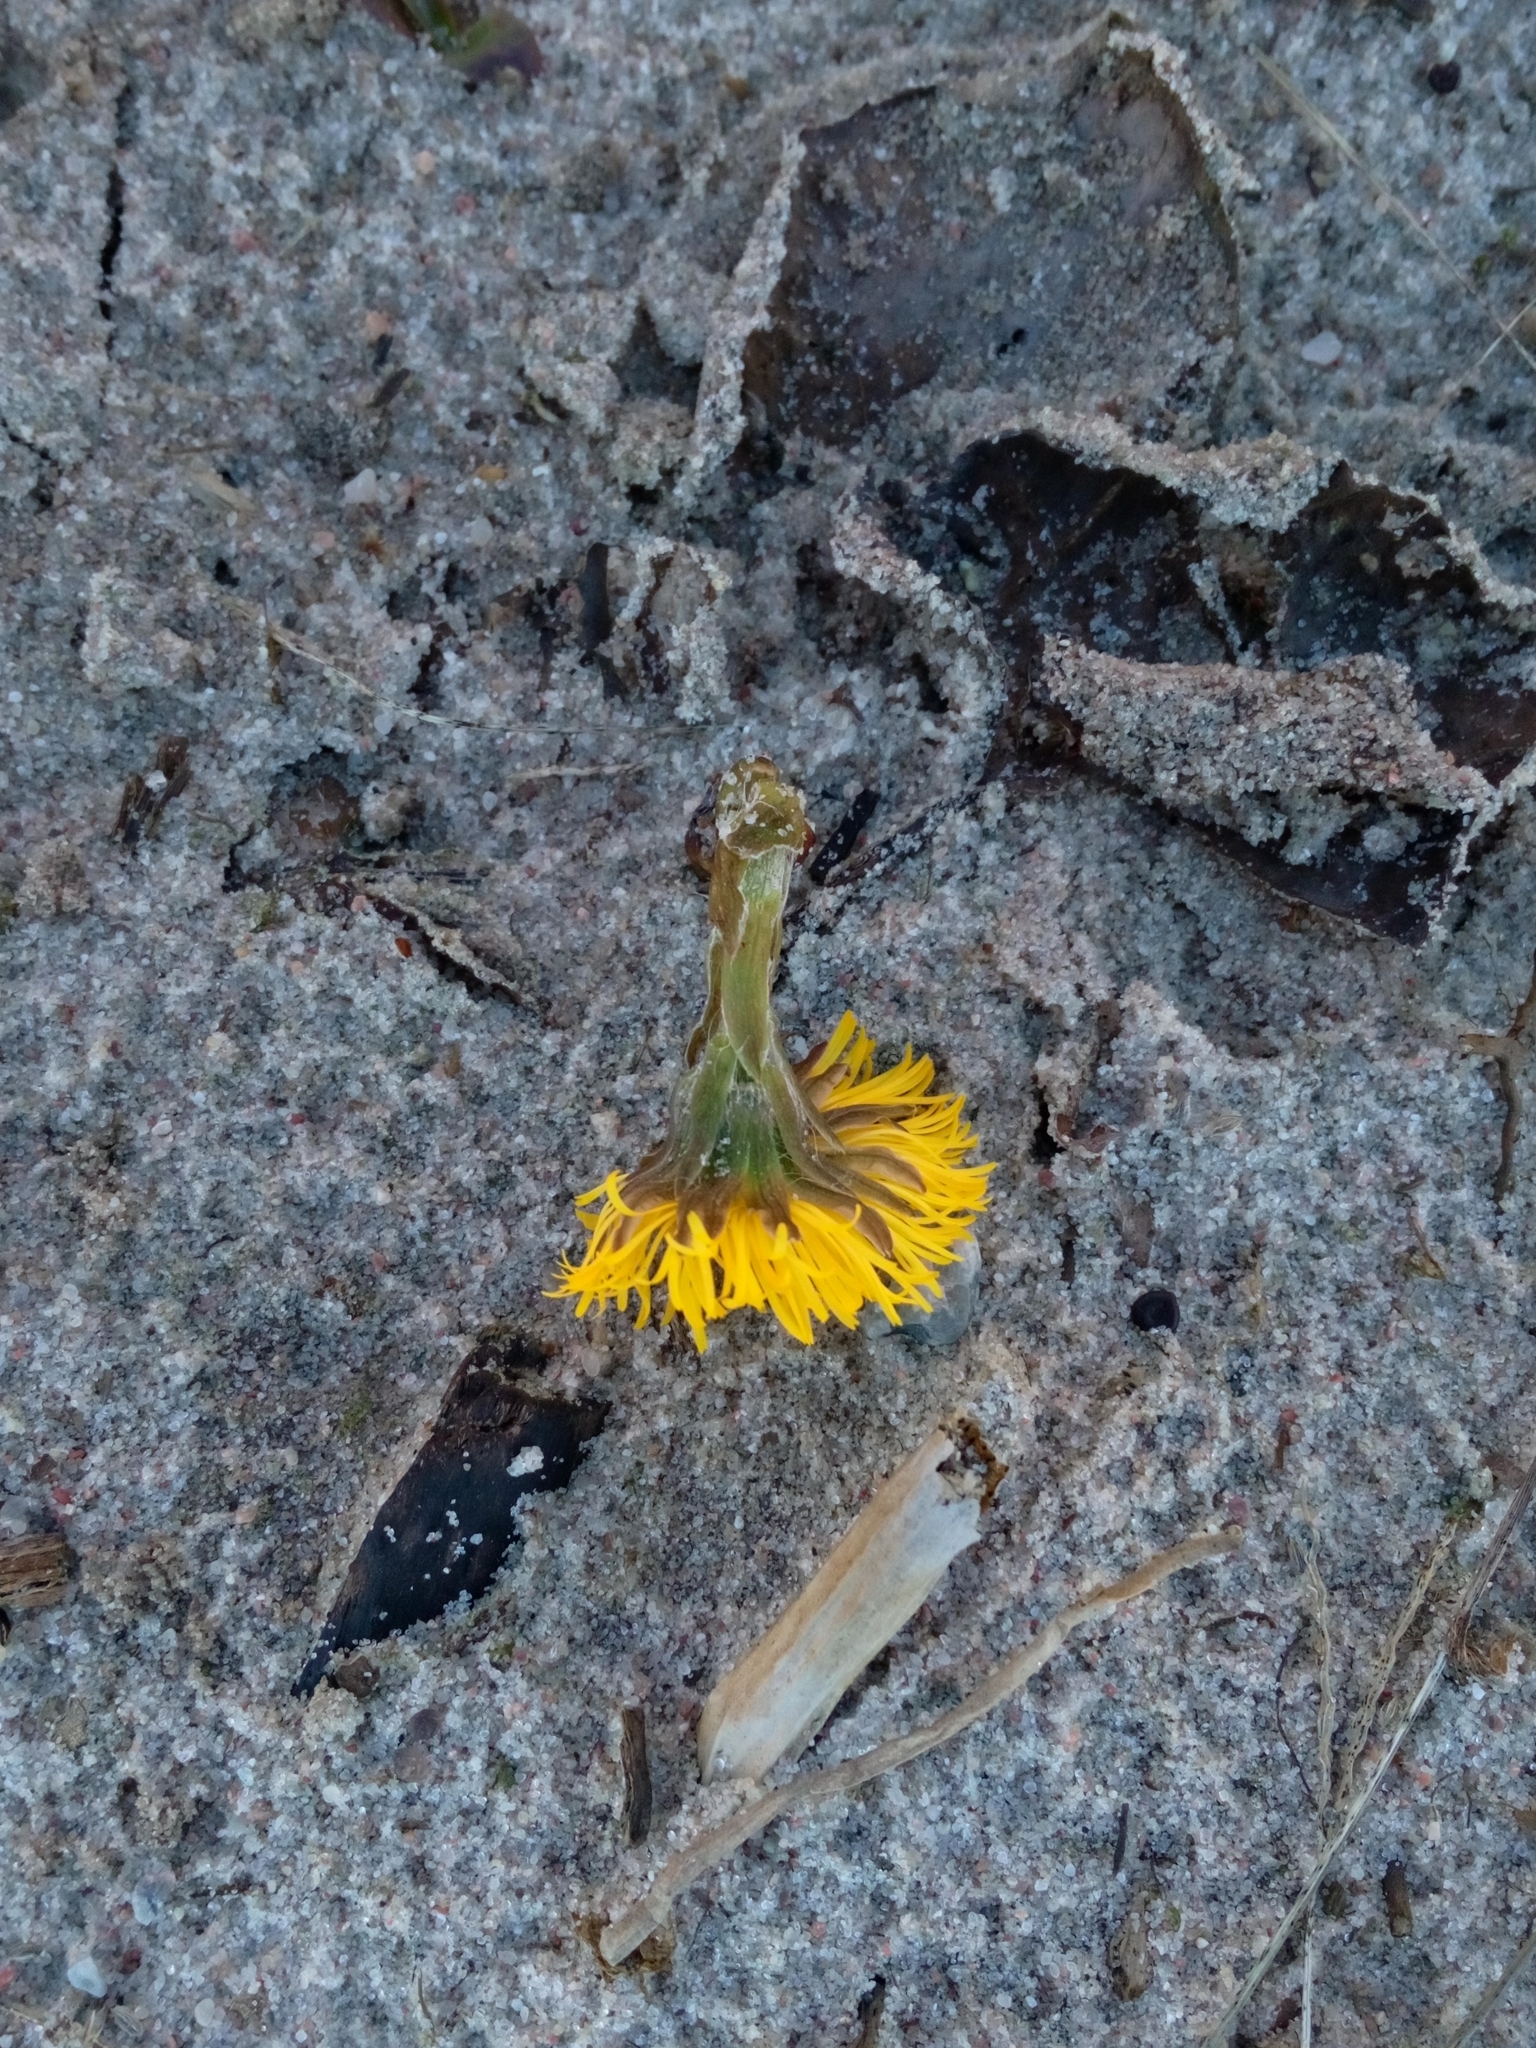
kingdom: Plantae
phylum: Tracheophyta
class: Magnoliopsida
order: Asterales
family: Asteraceae
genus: Tussilago
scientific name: Tussilago farfara
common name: Coltsfoot
